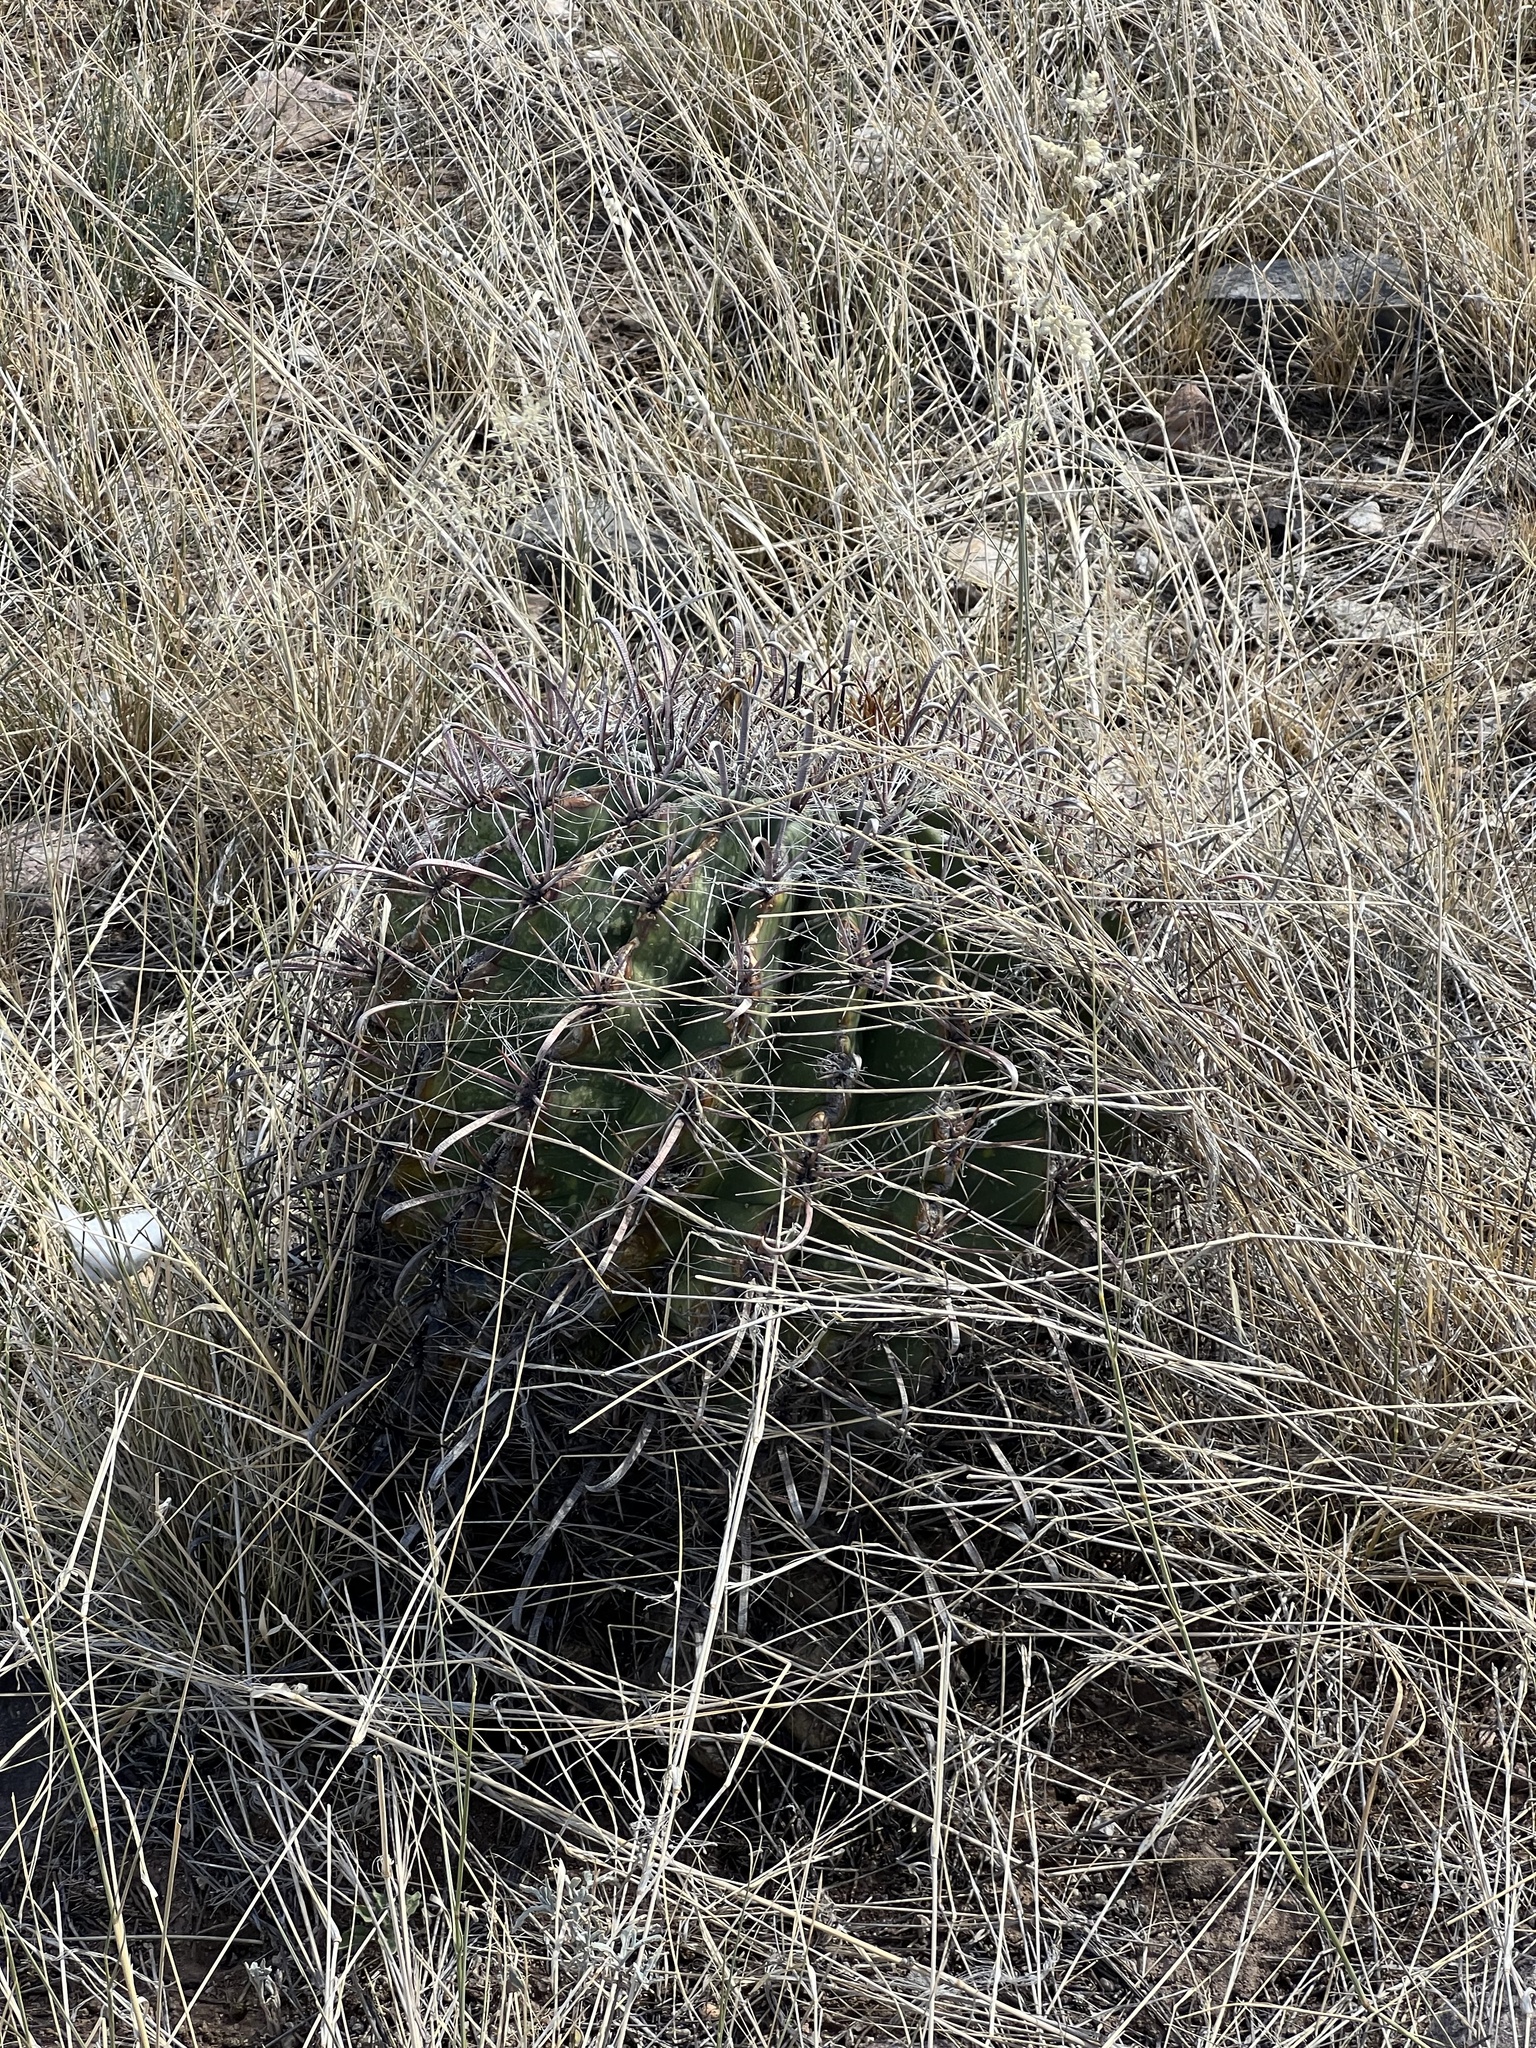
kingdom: Plantae
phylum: Tracheophyta
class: Magnoliopsida
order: Caryophyllales
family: Cactaceae
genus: Ferocactus
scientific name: Ferocactus wislizeni
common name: Candy barrel cactus
